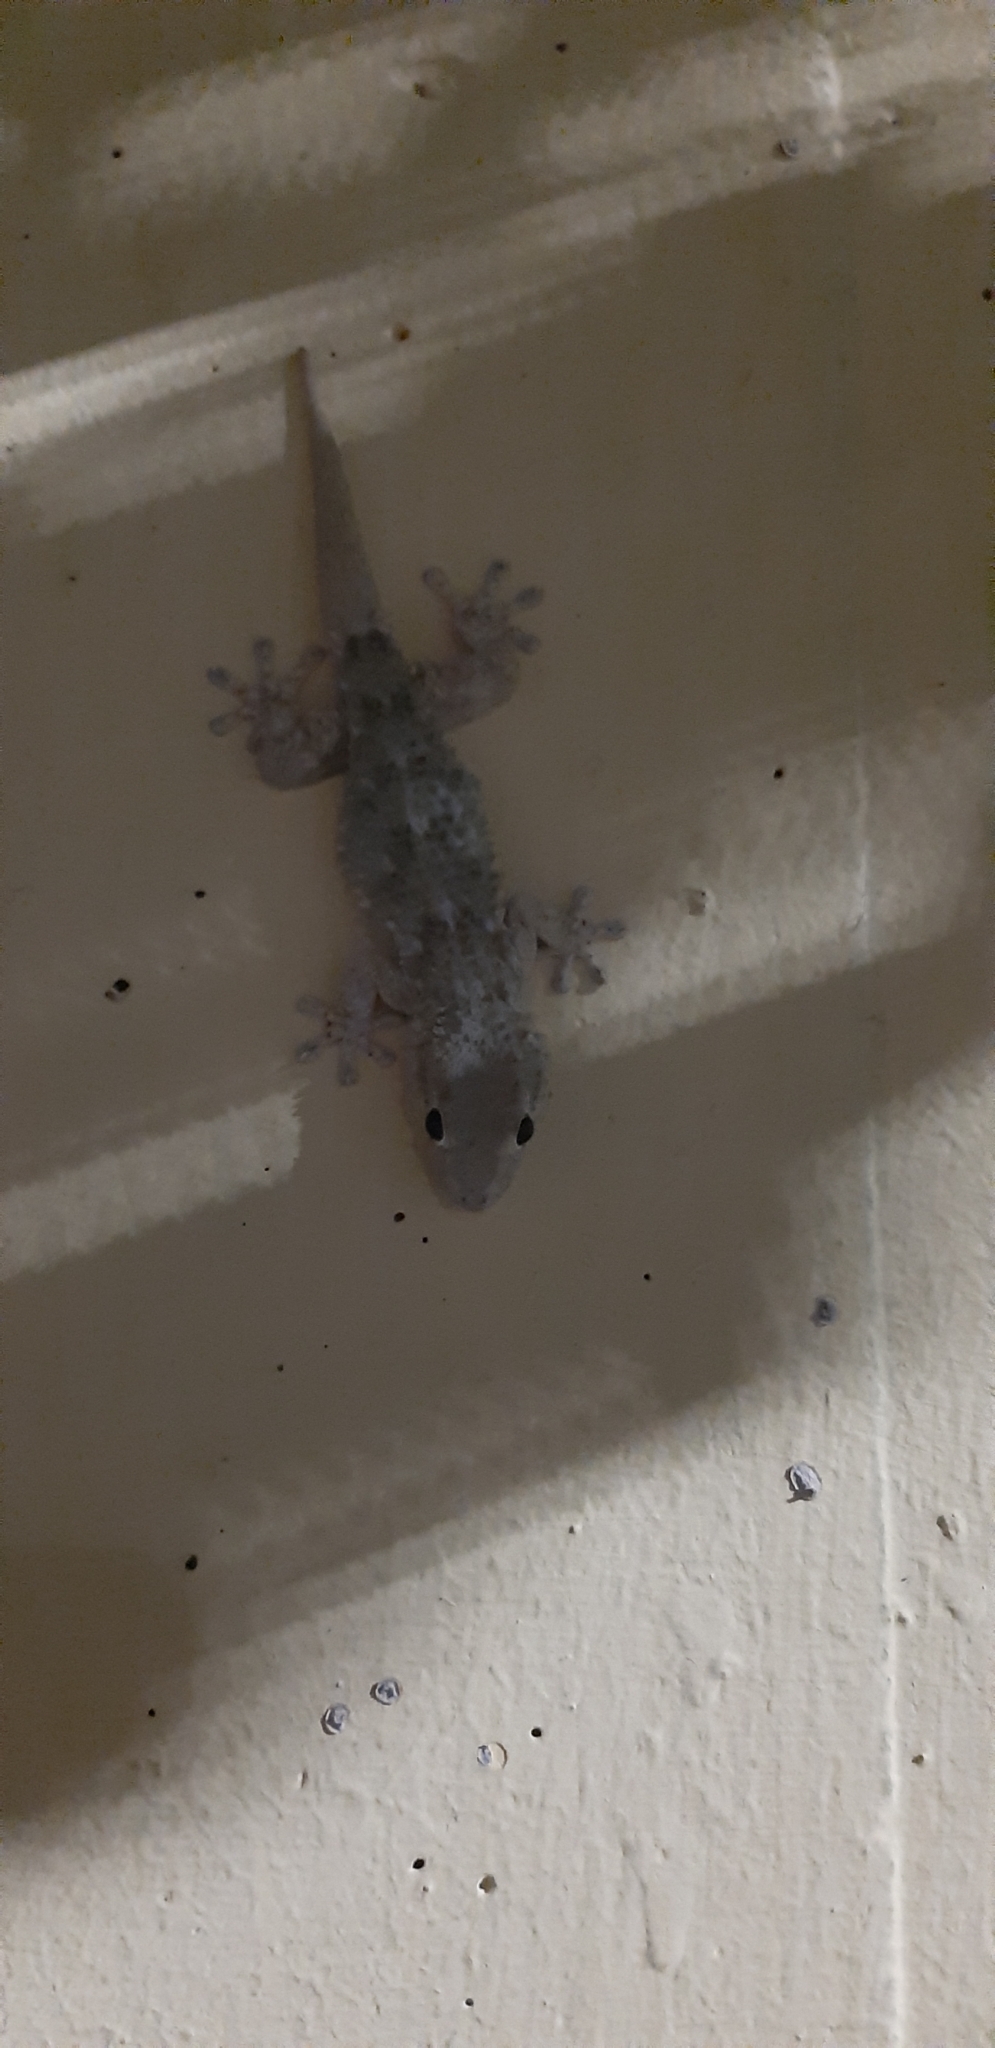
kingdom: Animalia
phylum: Chordata
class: Squamata
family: Phyllodactylidae
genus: Tarentola
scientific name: Tarentola mauritanica
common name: Moorish gecko
